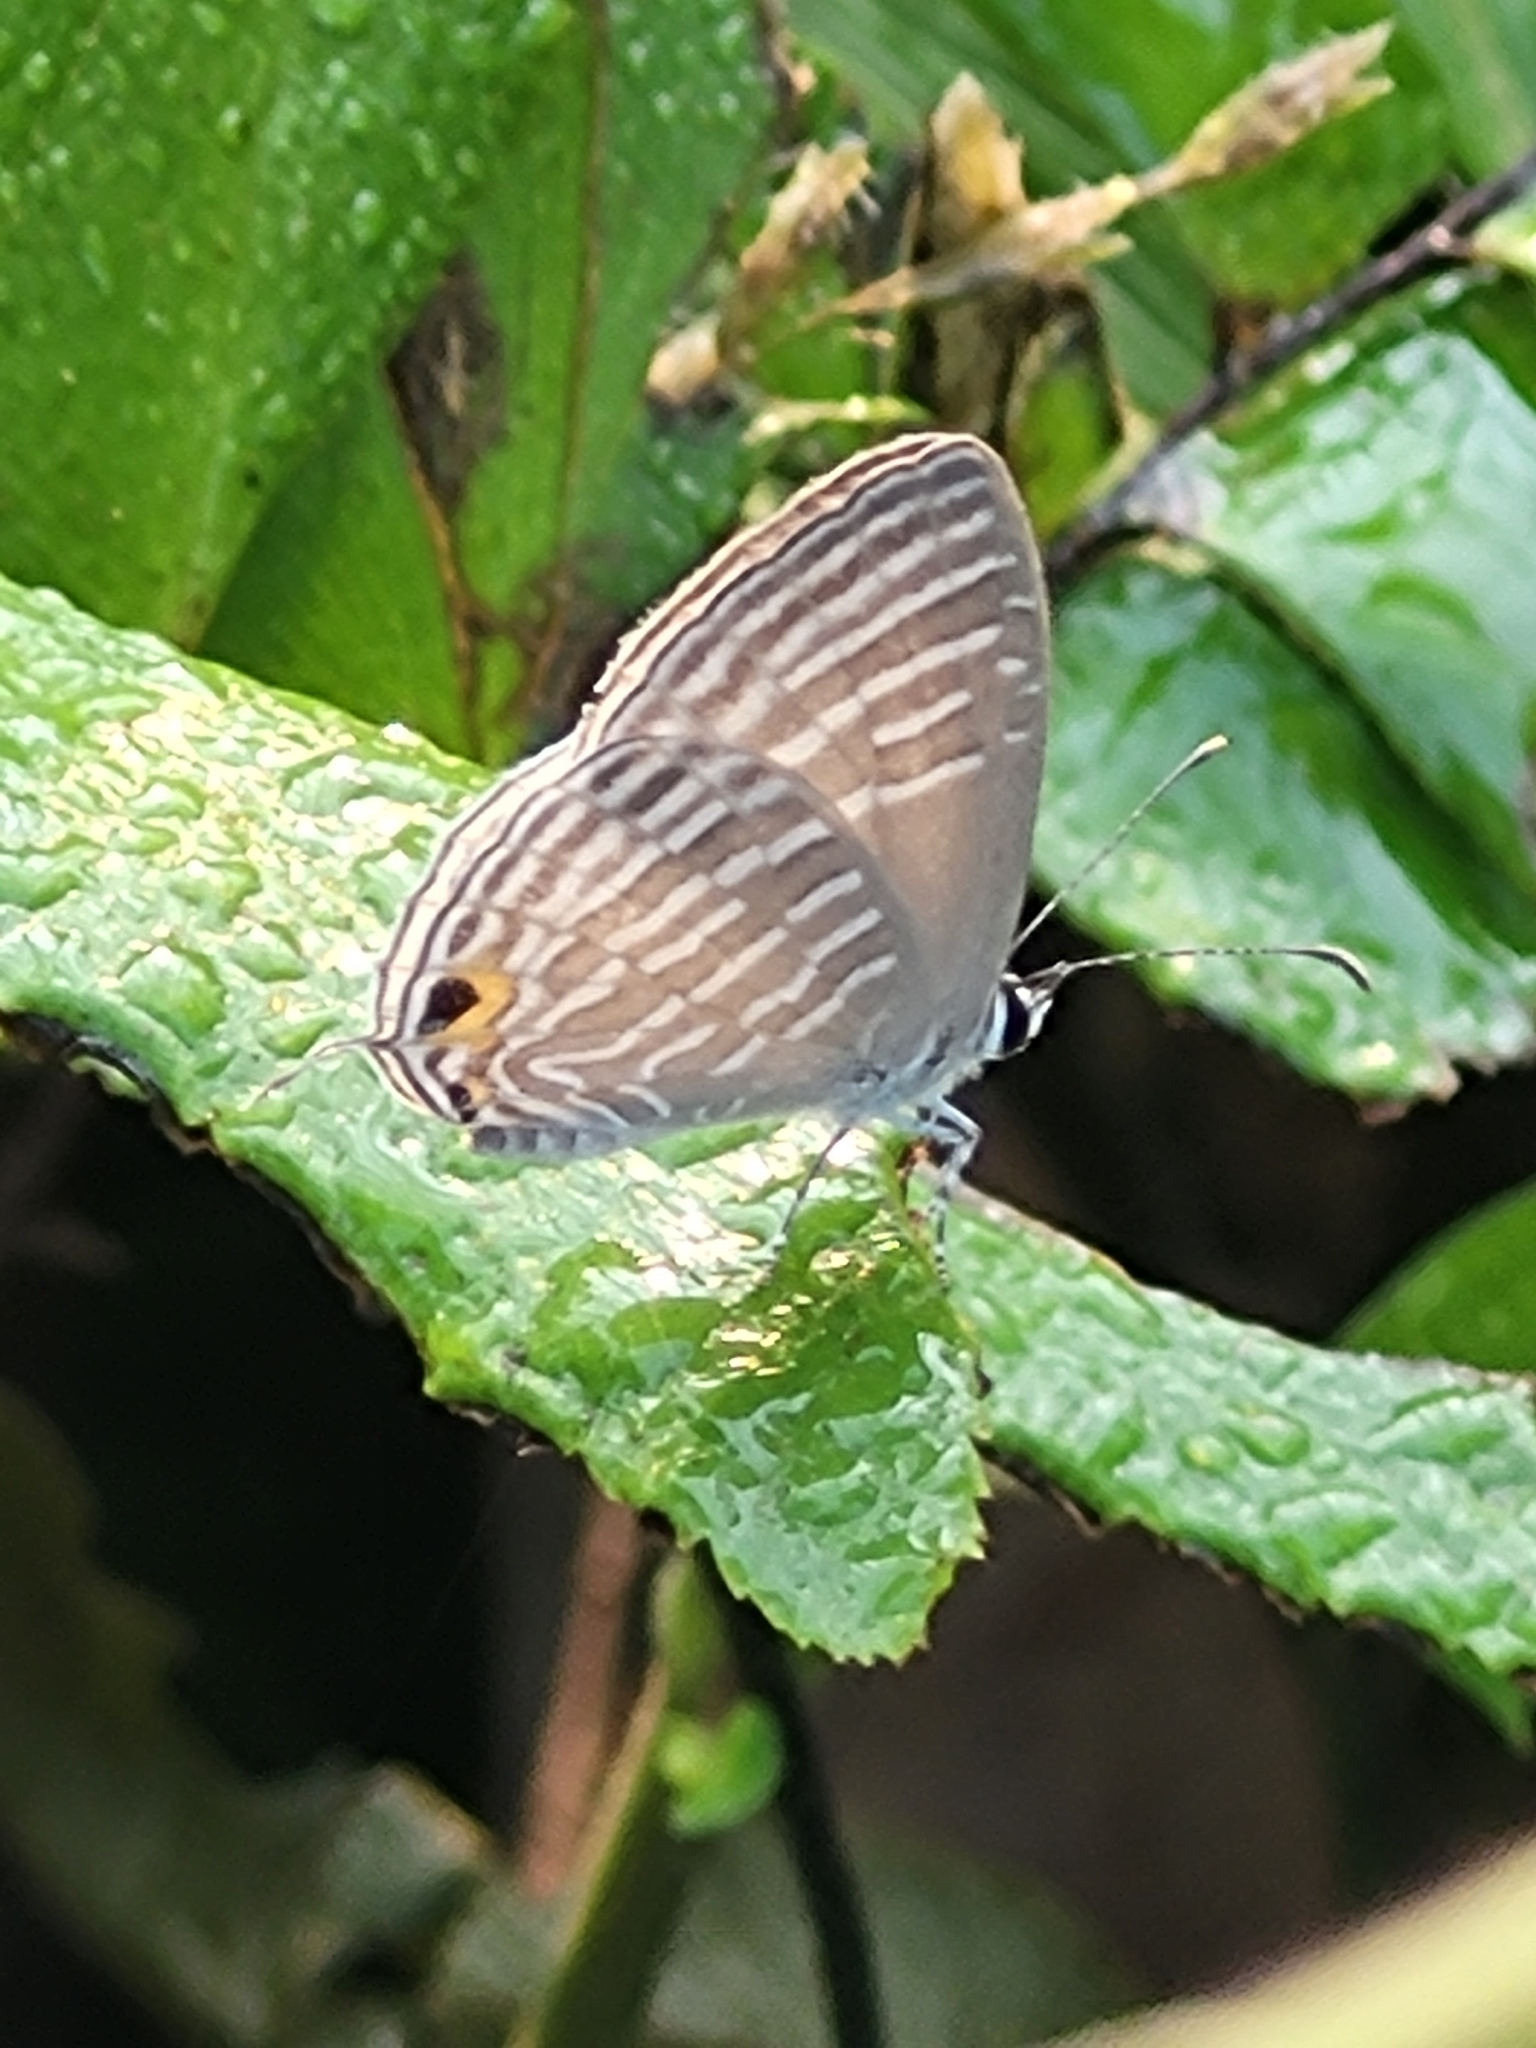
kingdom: Animalia
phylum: Arthropoda
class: Insecta
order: Lepidoptera
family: Lycaenidae
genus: Jamides
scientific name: Jamides celeno
